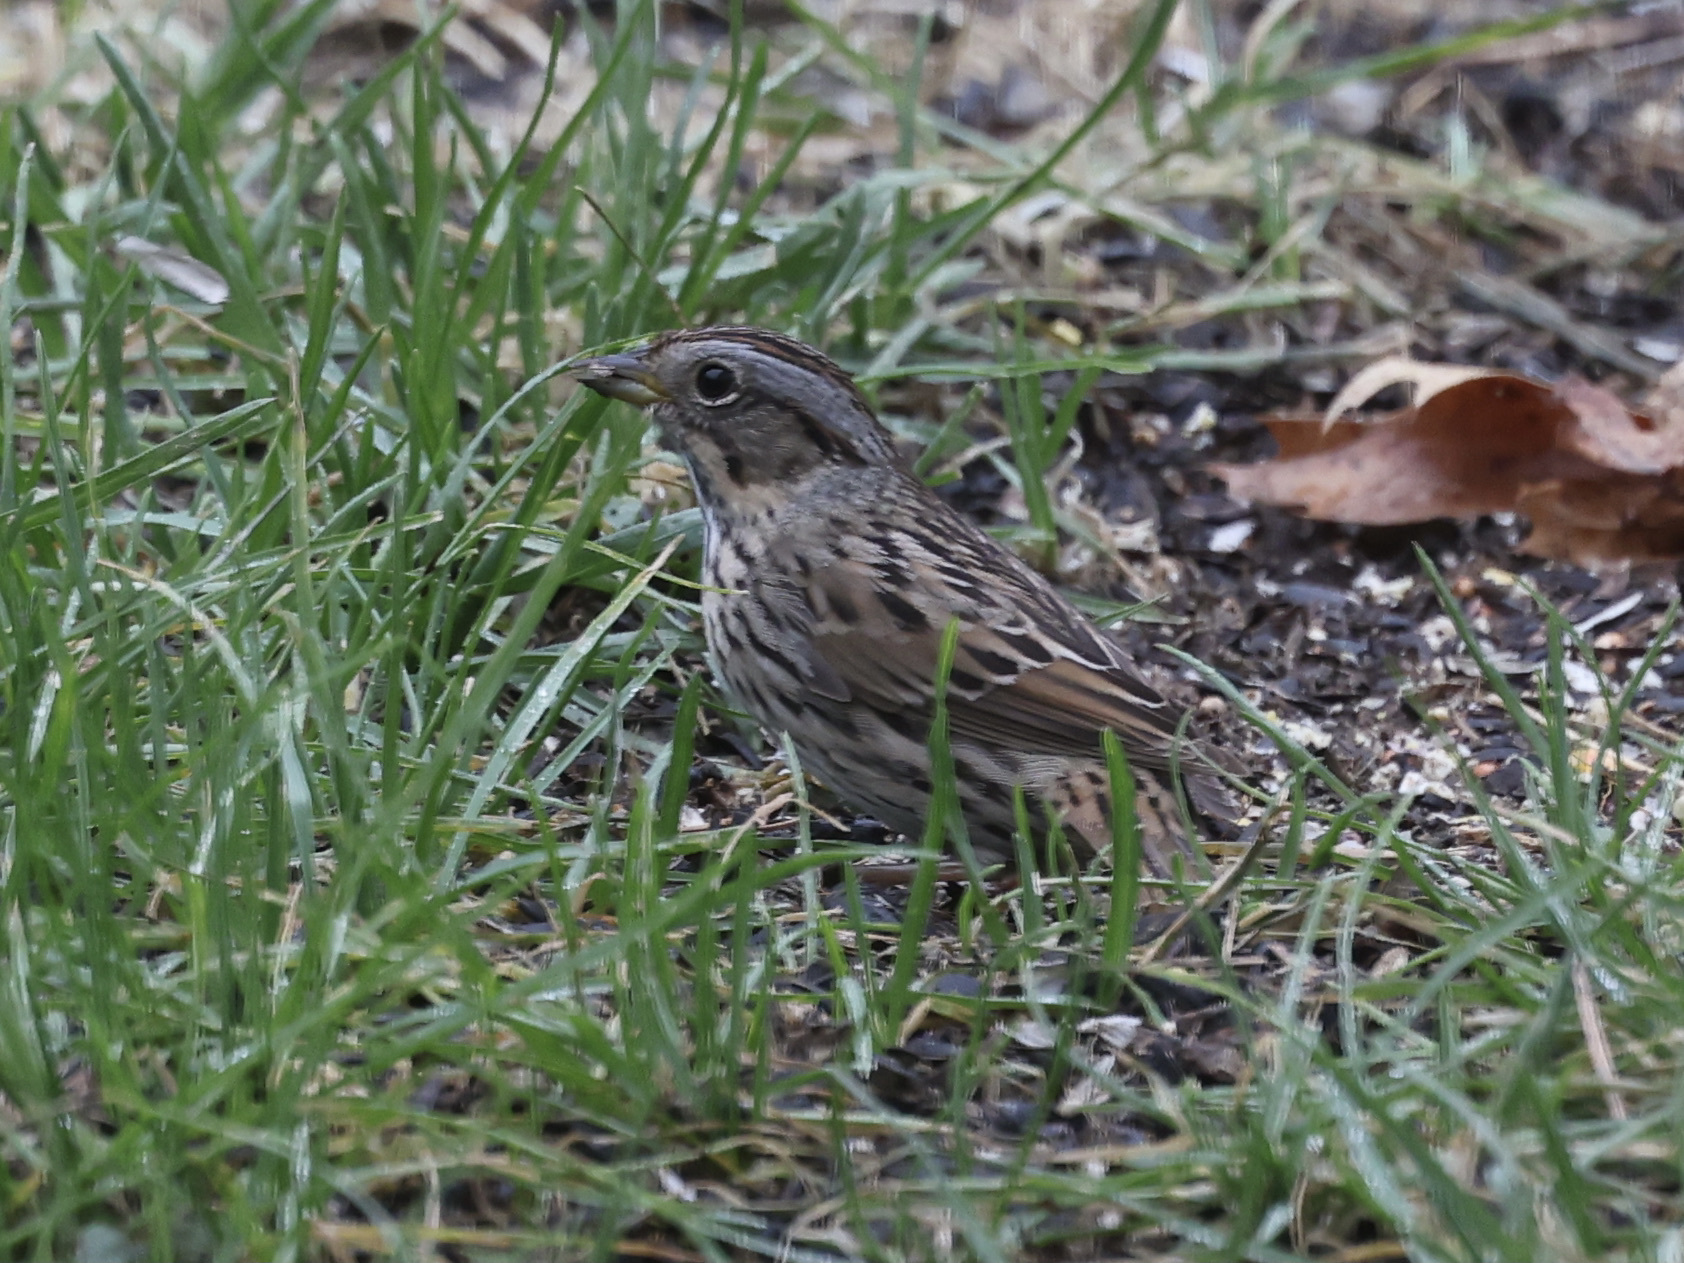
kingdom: Animalia
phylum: Chordata
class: Aves
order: Passeriformes
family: Passerellidae
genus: Melospiza
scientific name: Melospiza lincolnii
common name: Lincoln's sparrow
